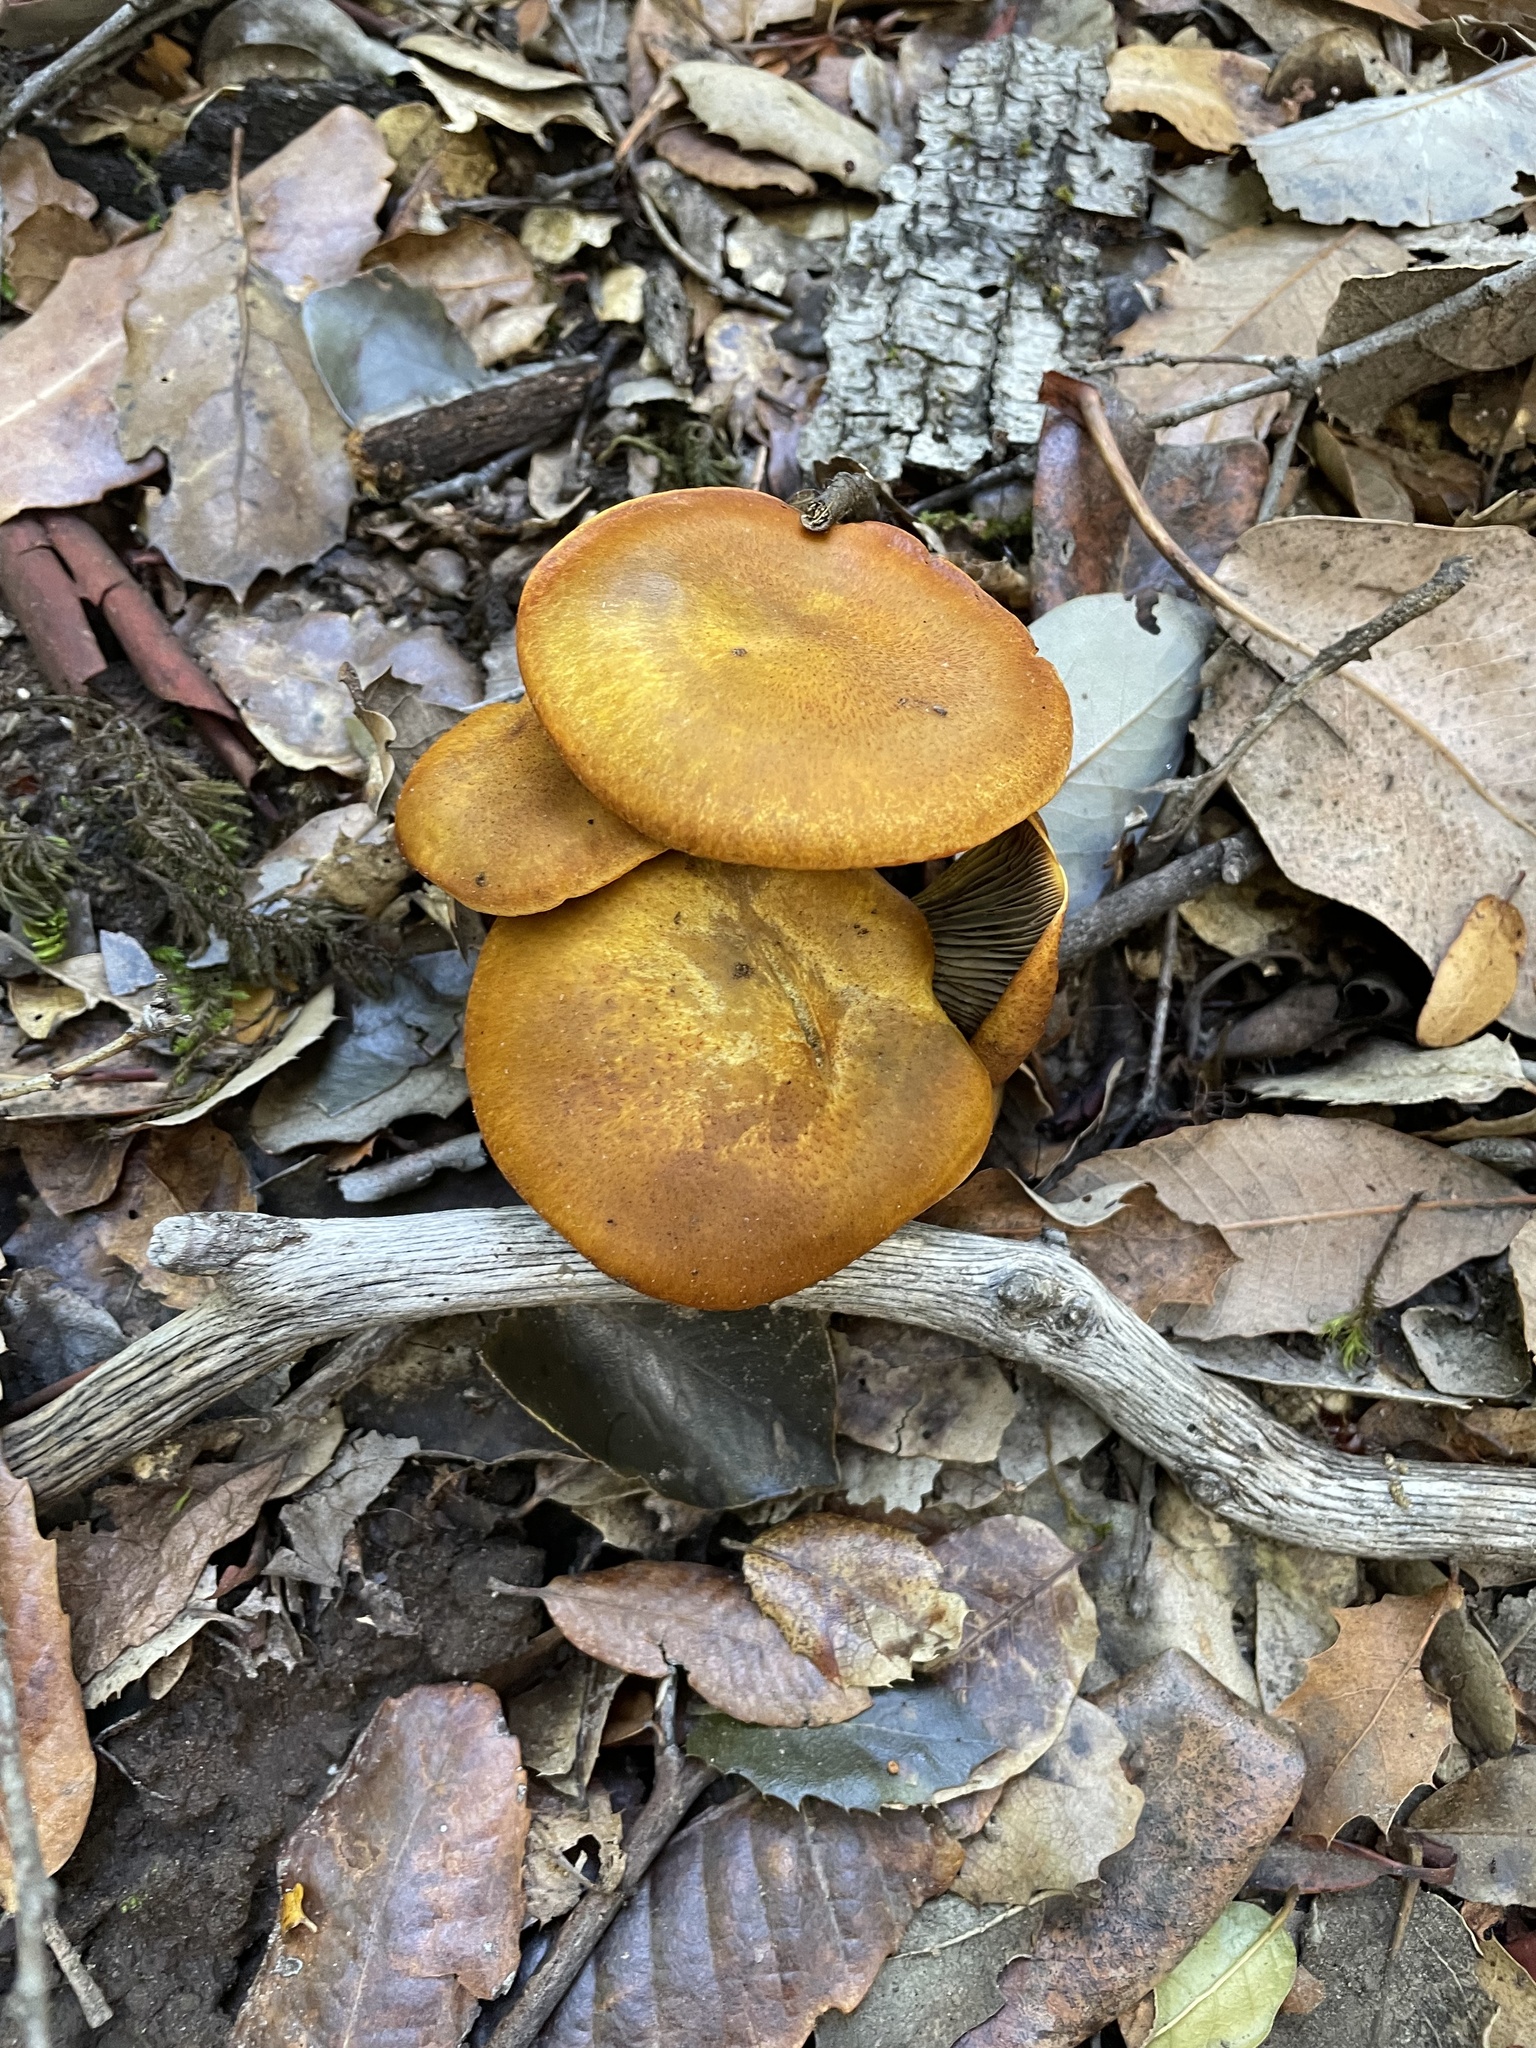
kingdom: Fungi
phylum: Basidiomycota
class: Agaricomycetes
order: Agaricales
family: Omphalotaceae
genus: Omphalotus
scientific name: Omphalotus olivascens
